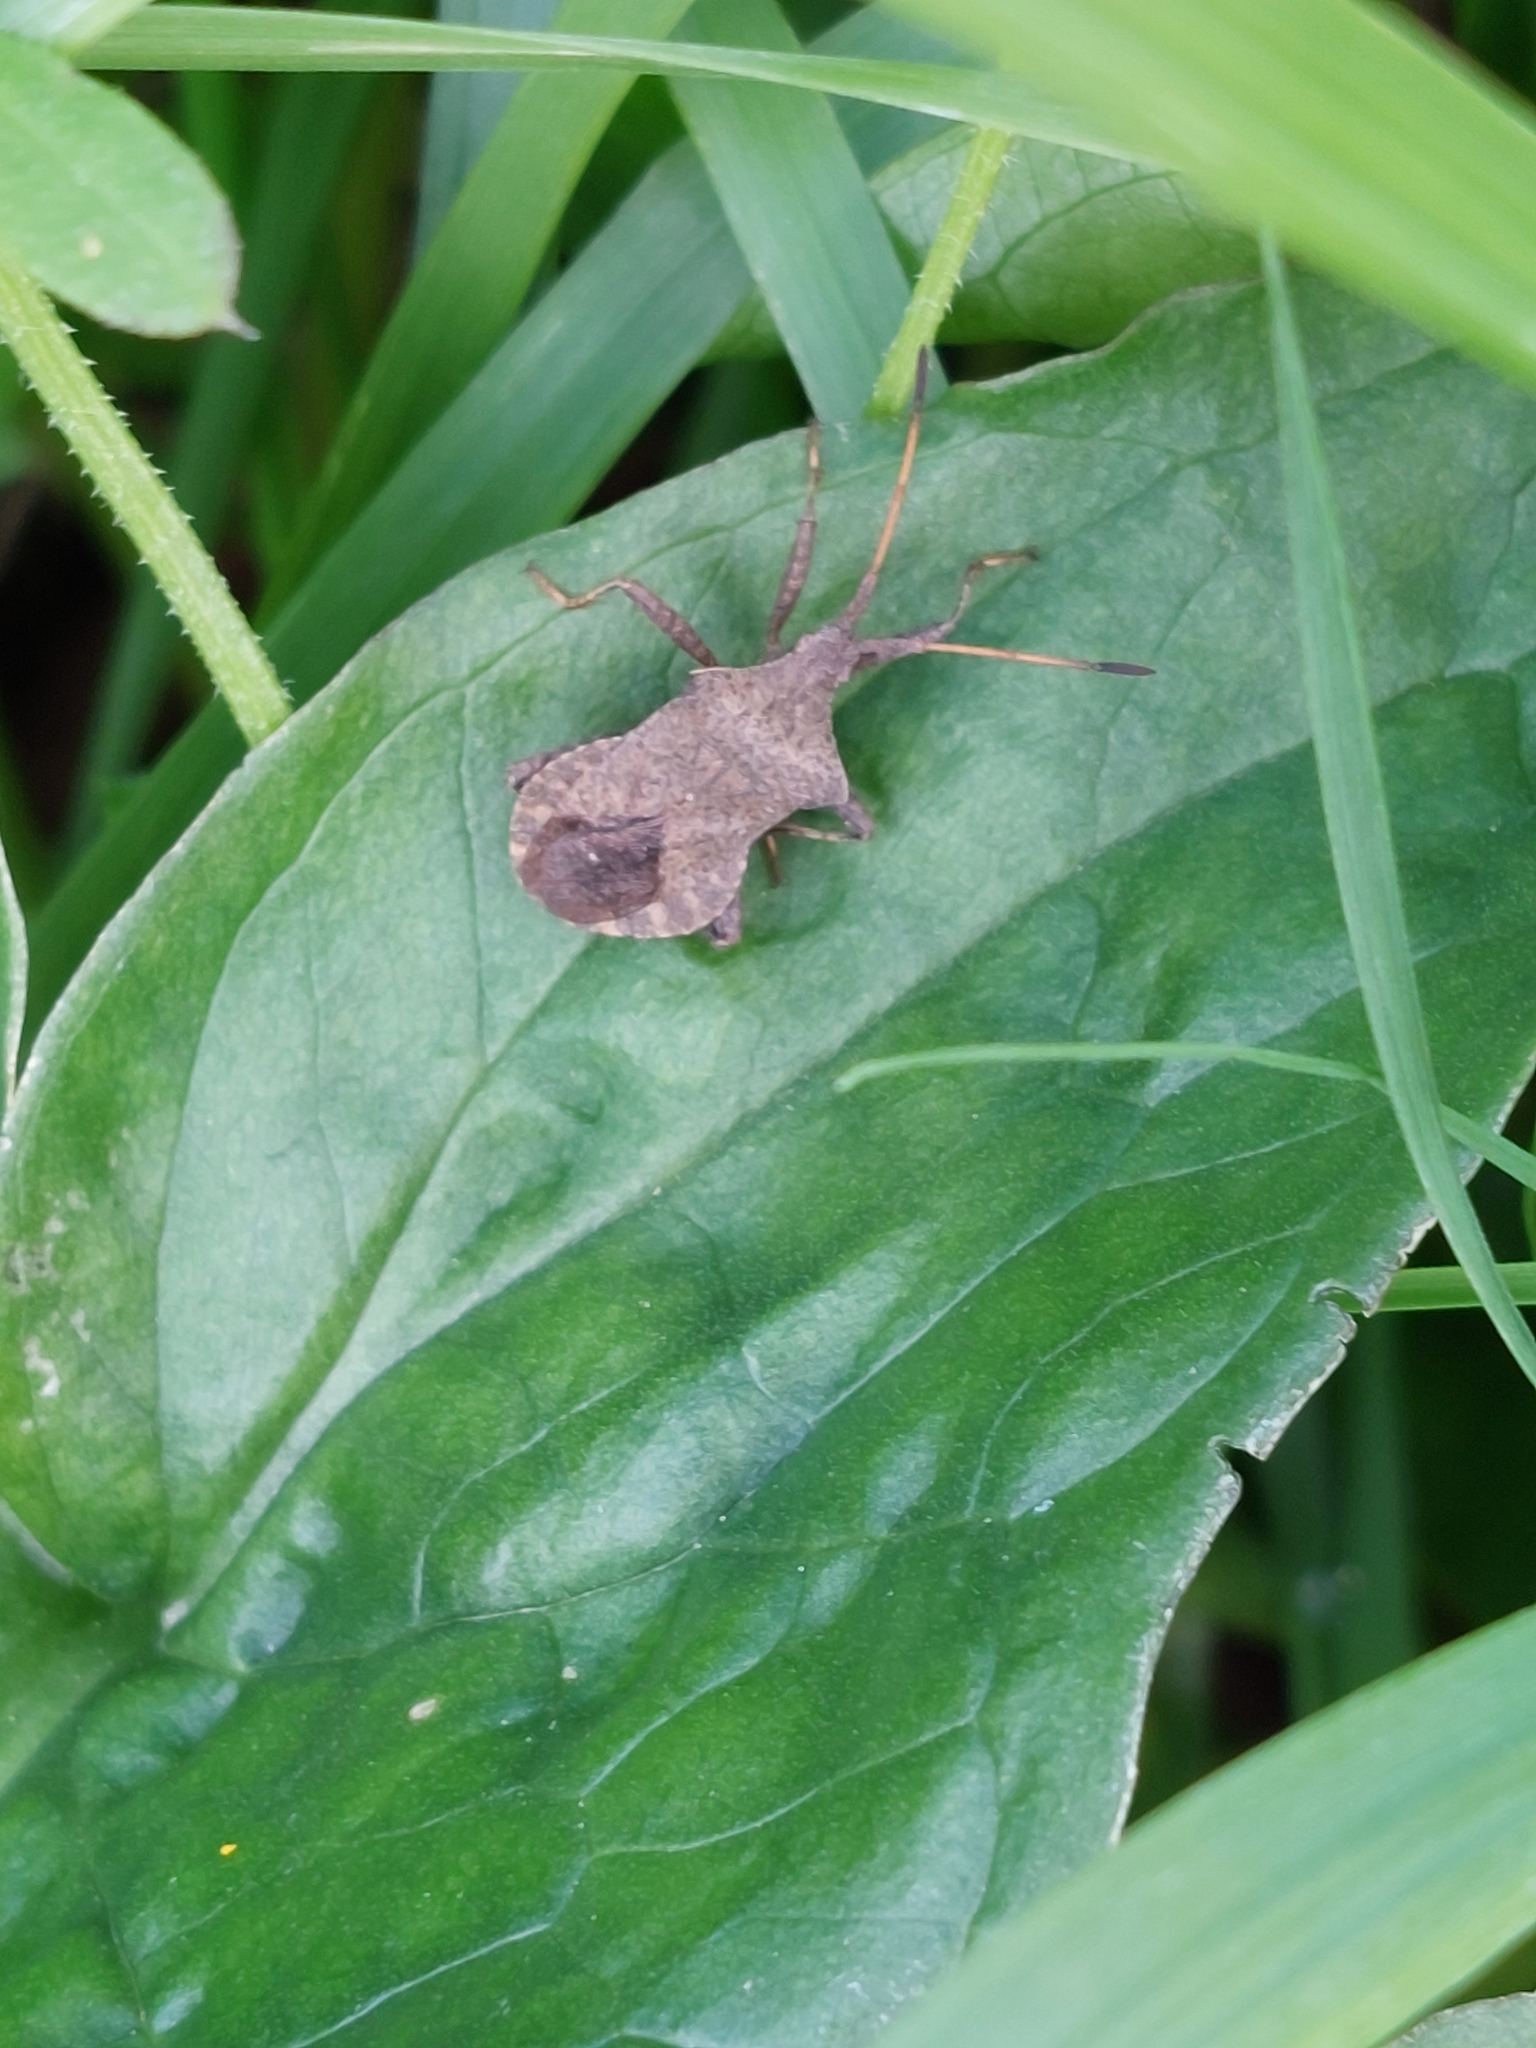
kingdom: Animalia
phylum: Arthropoda
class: Insecta
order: Hemiptera
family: Coreidae
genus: Coreus
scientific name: Coreus marginatus
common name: Dock bug
